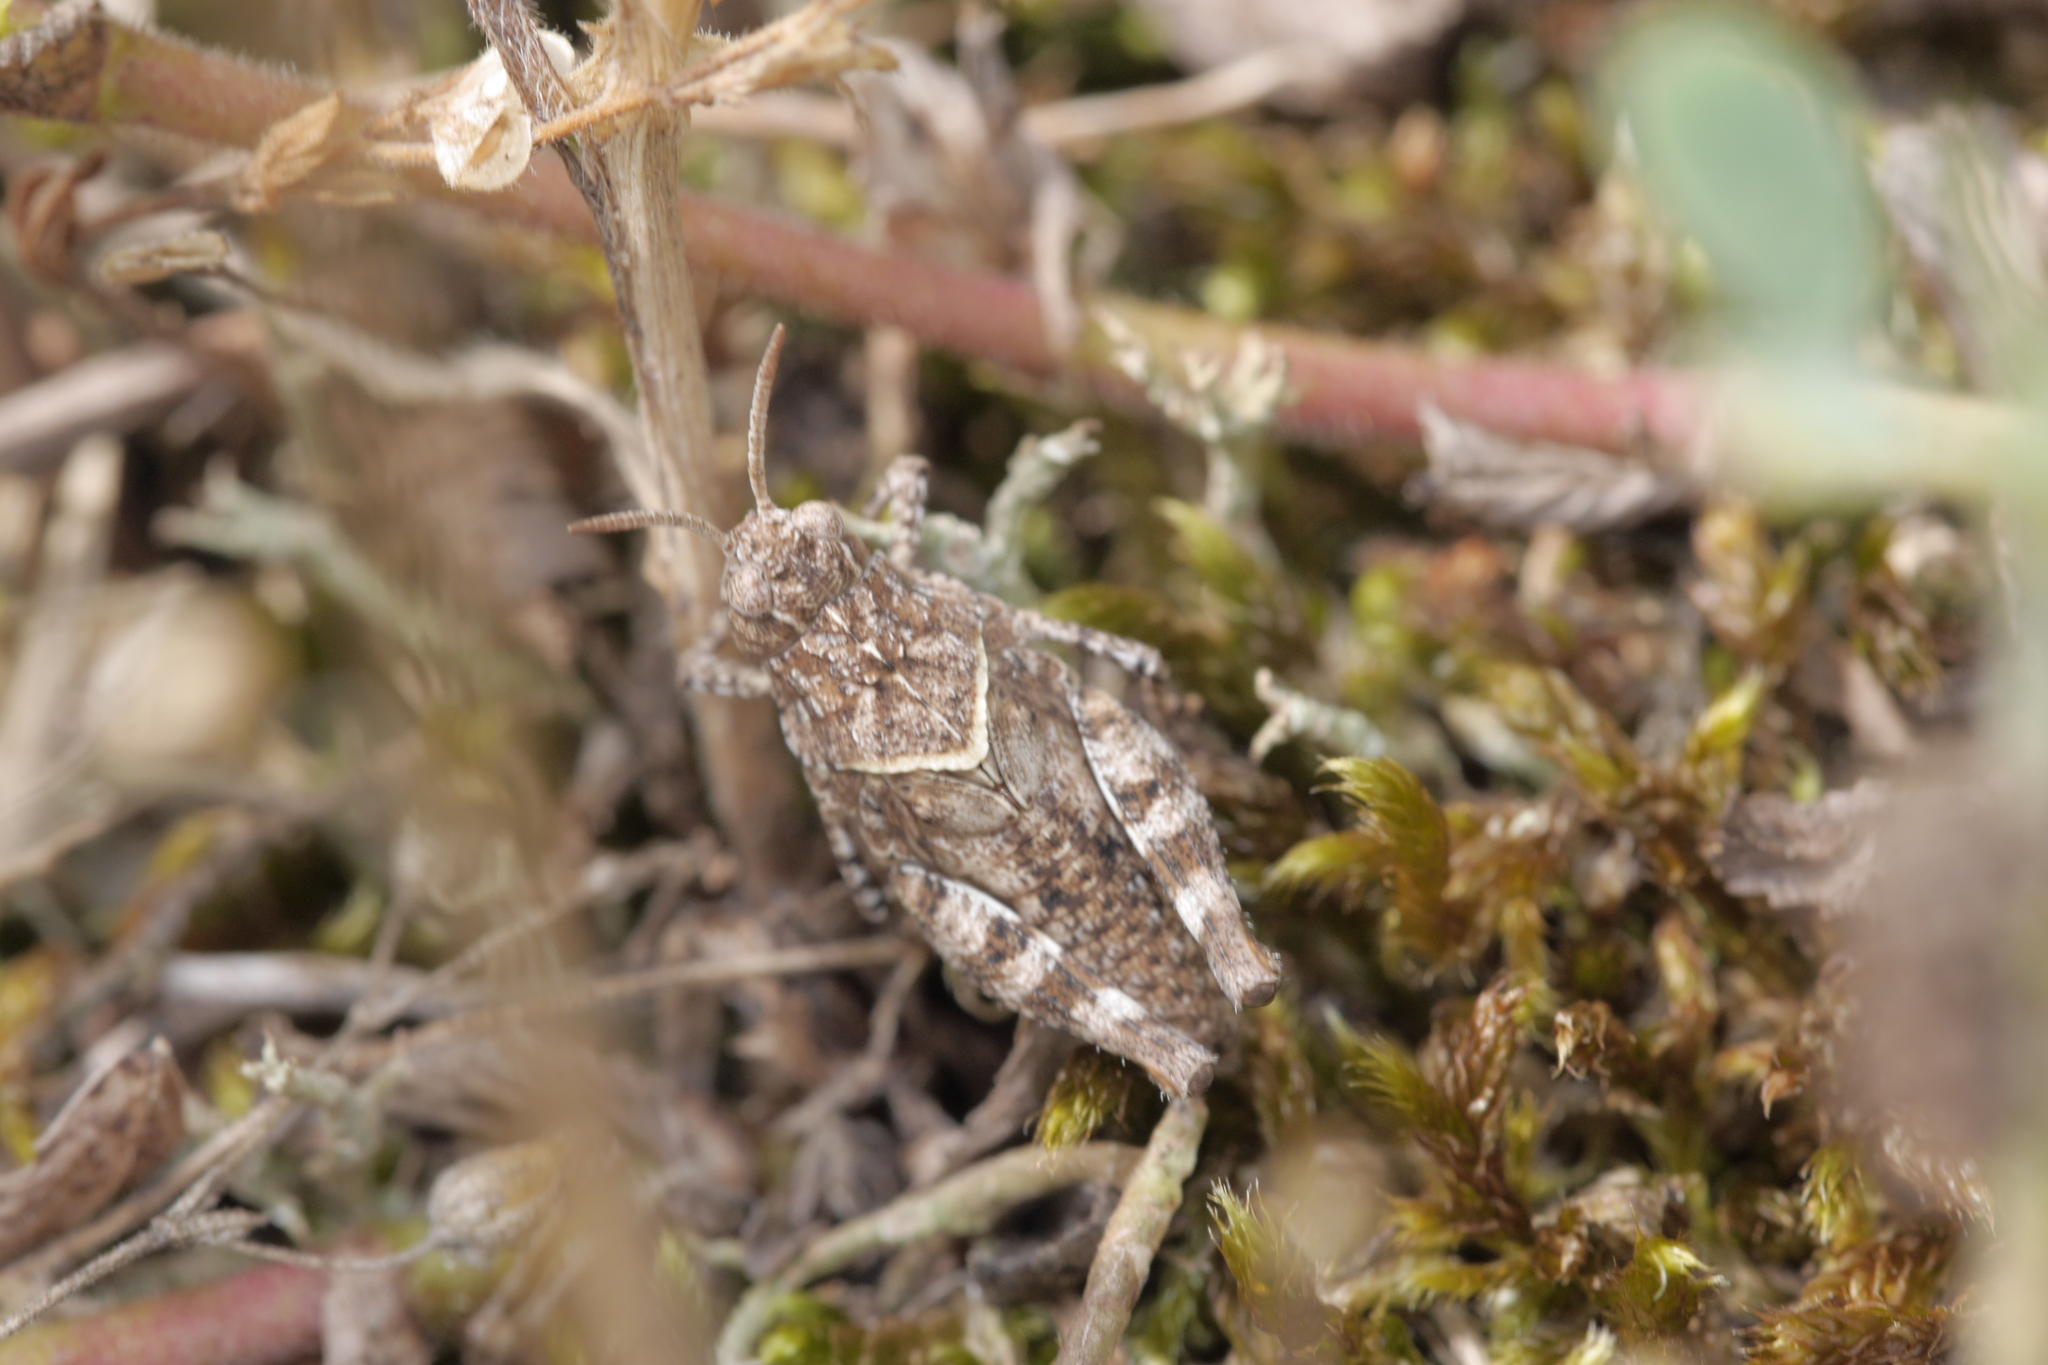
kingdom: Animalia
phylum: Arthropoda
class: Insecta
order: Orthoptera
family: Acrididae
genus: Oedipoda
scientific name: Oedipoda caerulescens
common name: Blue-winged grasshopper
